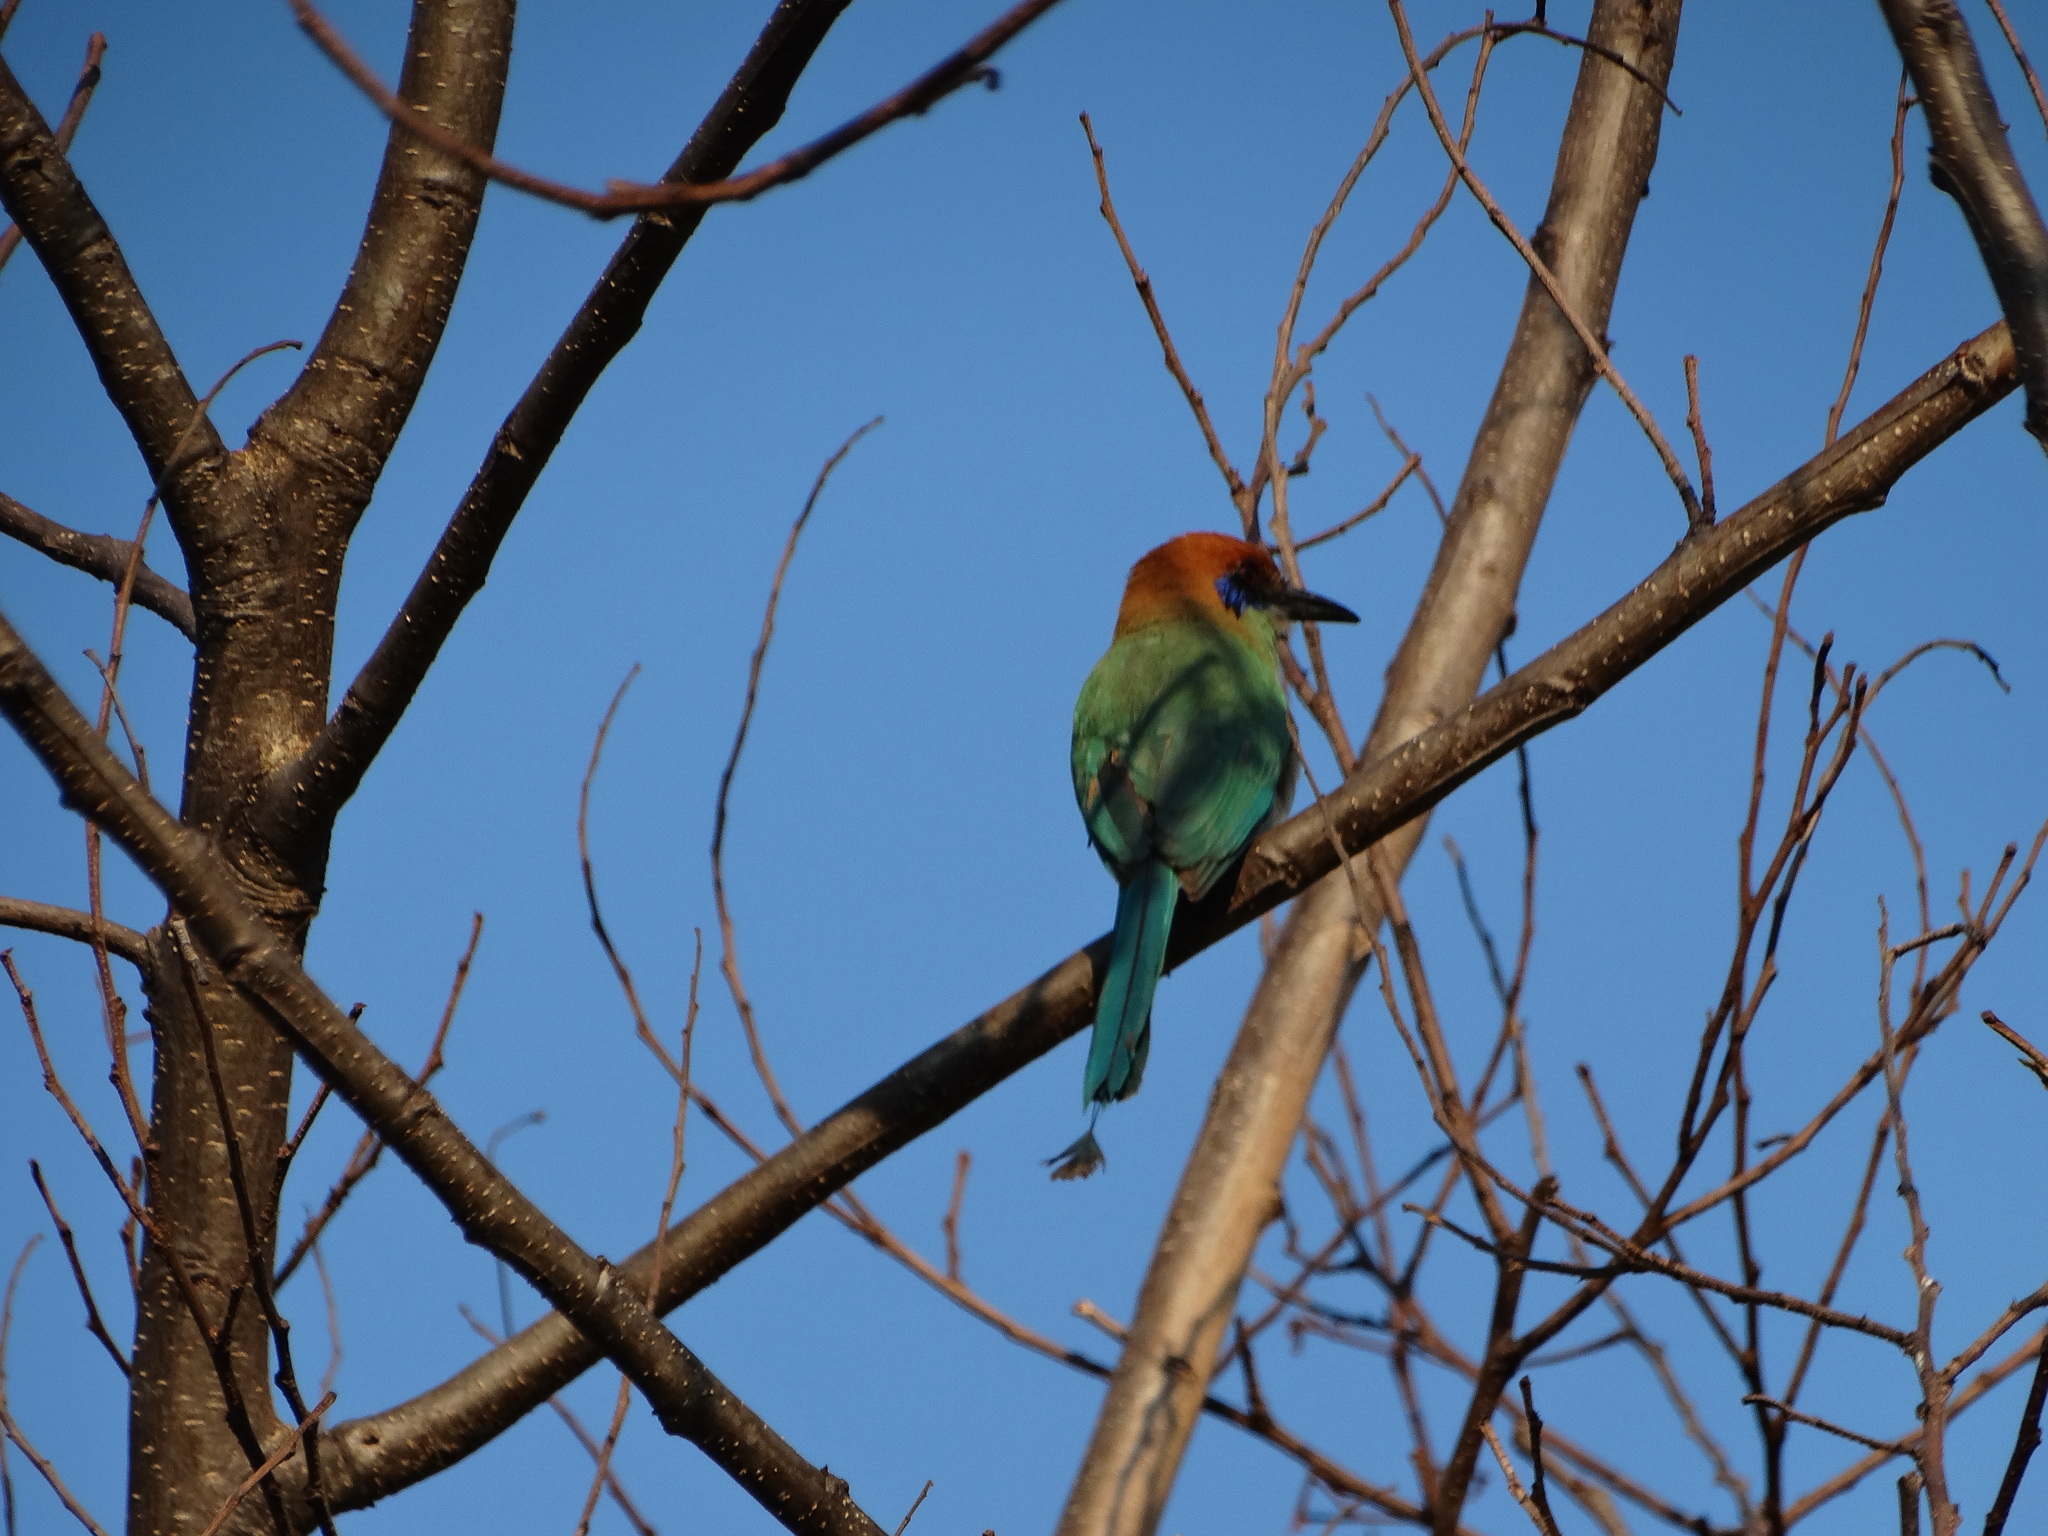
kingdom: Animalia
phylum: Chordata
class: Aves
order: Coraciiformes
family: Momotidae
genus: Momotus
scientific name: Momotus mexicanus
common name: Russet-crowned motmot
